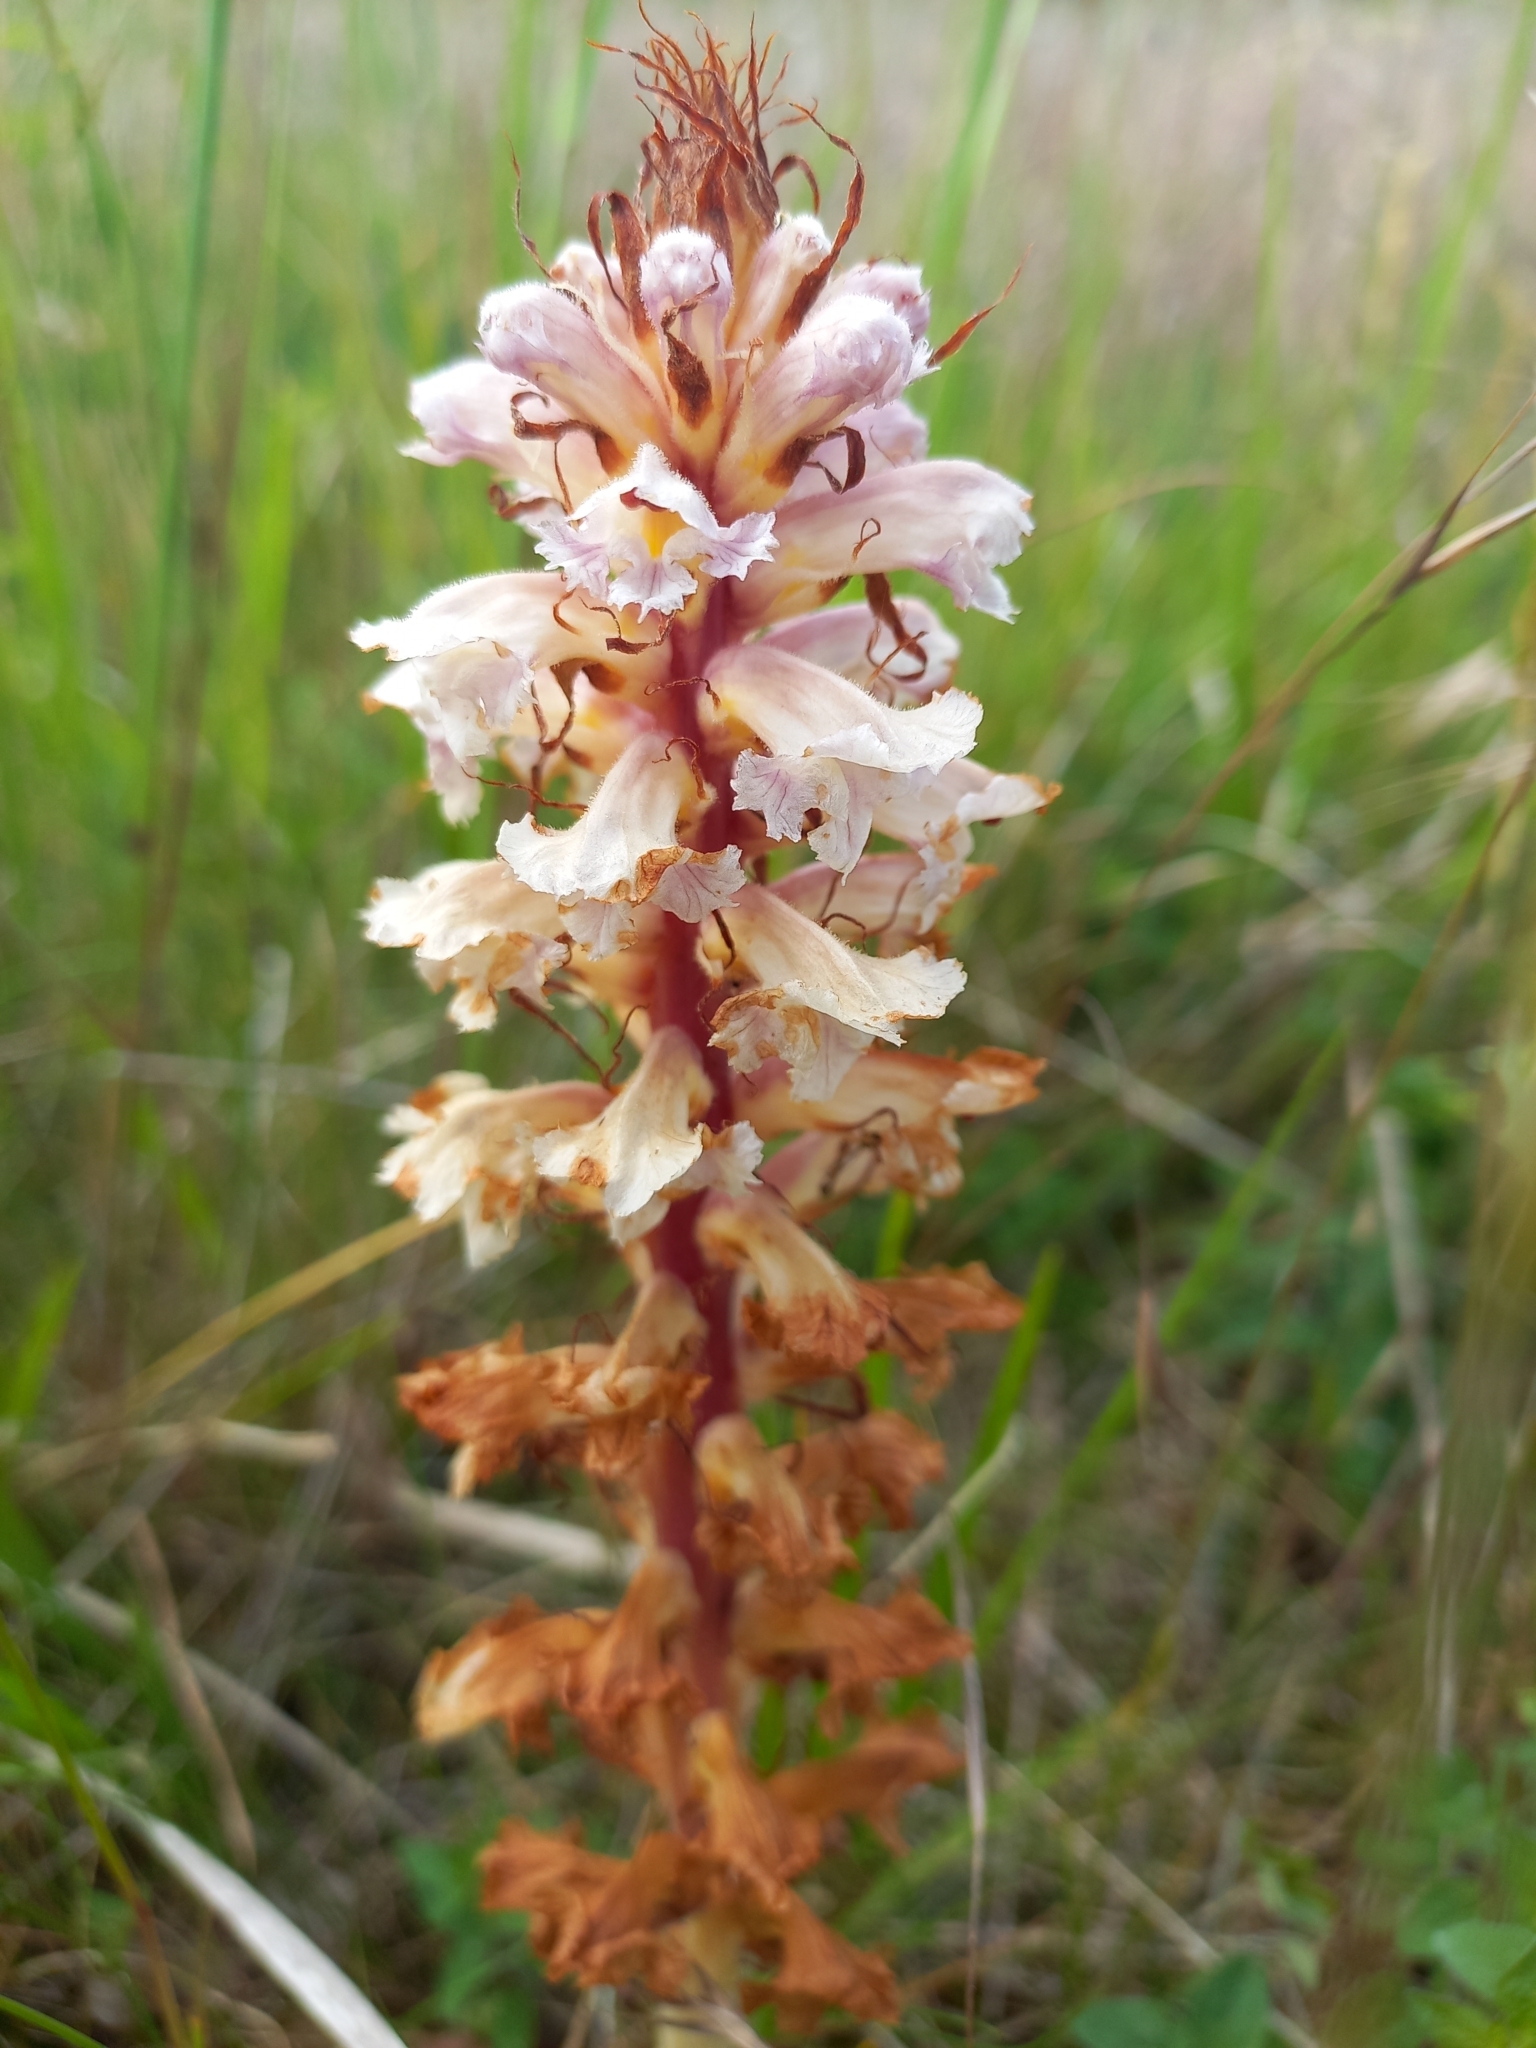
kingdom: Plantae
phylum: Tracheophyta
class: Magnoliopsida
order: Lamiales
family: Orobanchaceae
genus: Orobanche
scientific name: Orobanche amethystea
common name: Amethyst broomrape
